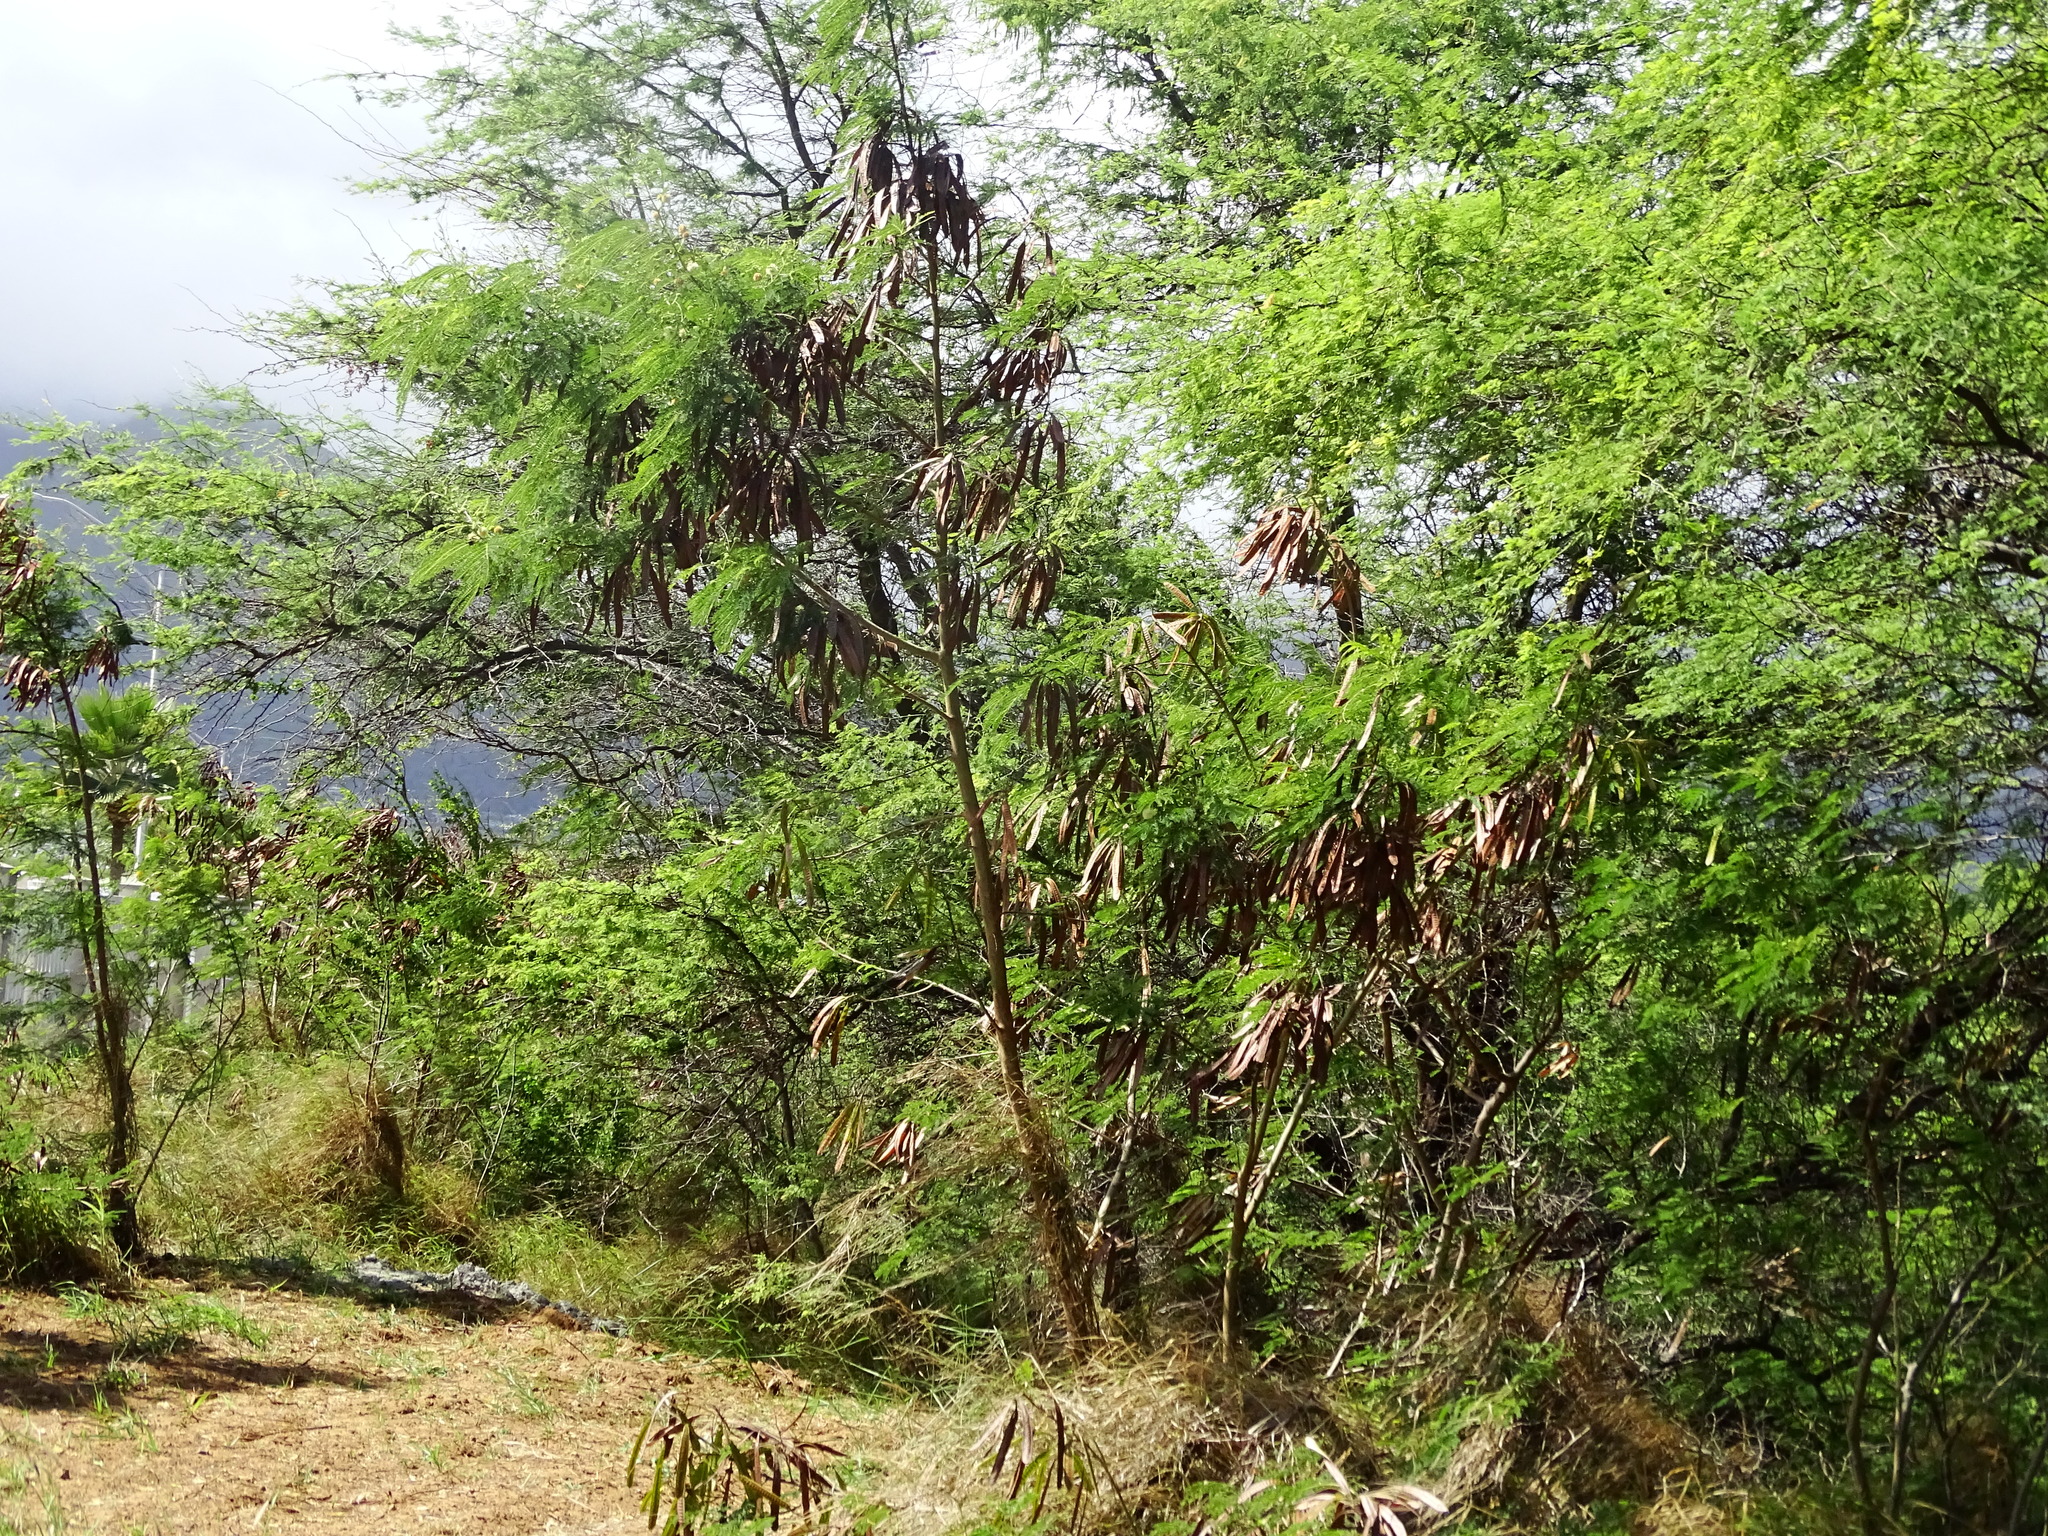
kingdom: Plantae
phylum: Tracheophyta
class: Magnoliopsida
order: Fabales
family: Fabaceae
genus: Leucaena
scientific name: Leucaena leucocephala
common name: White leadtree
